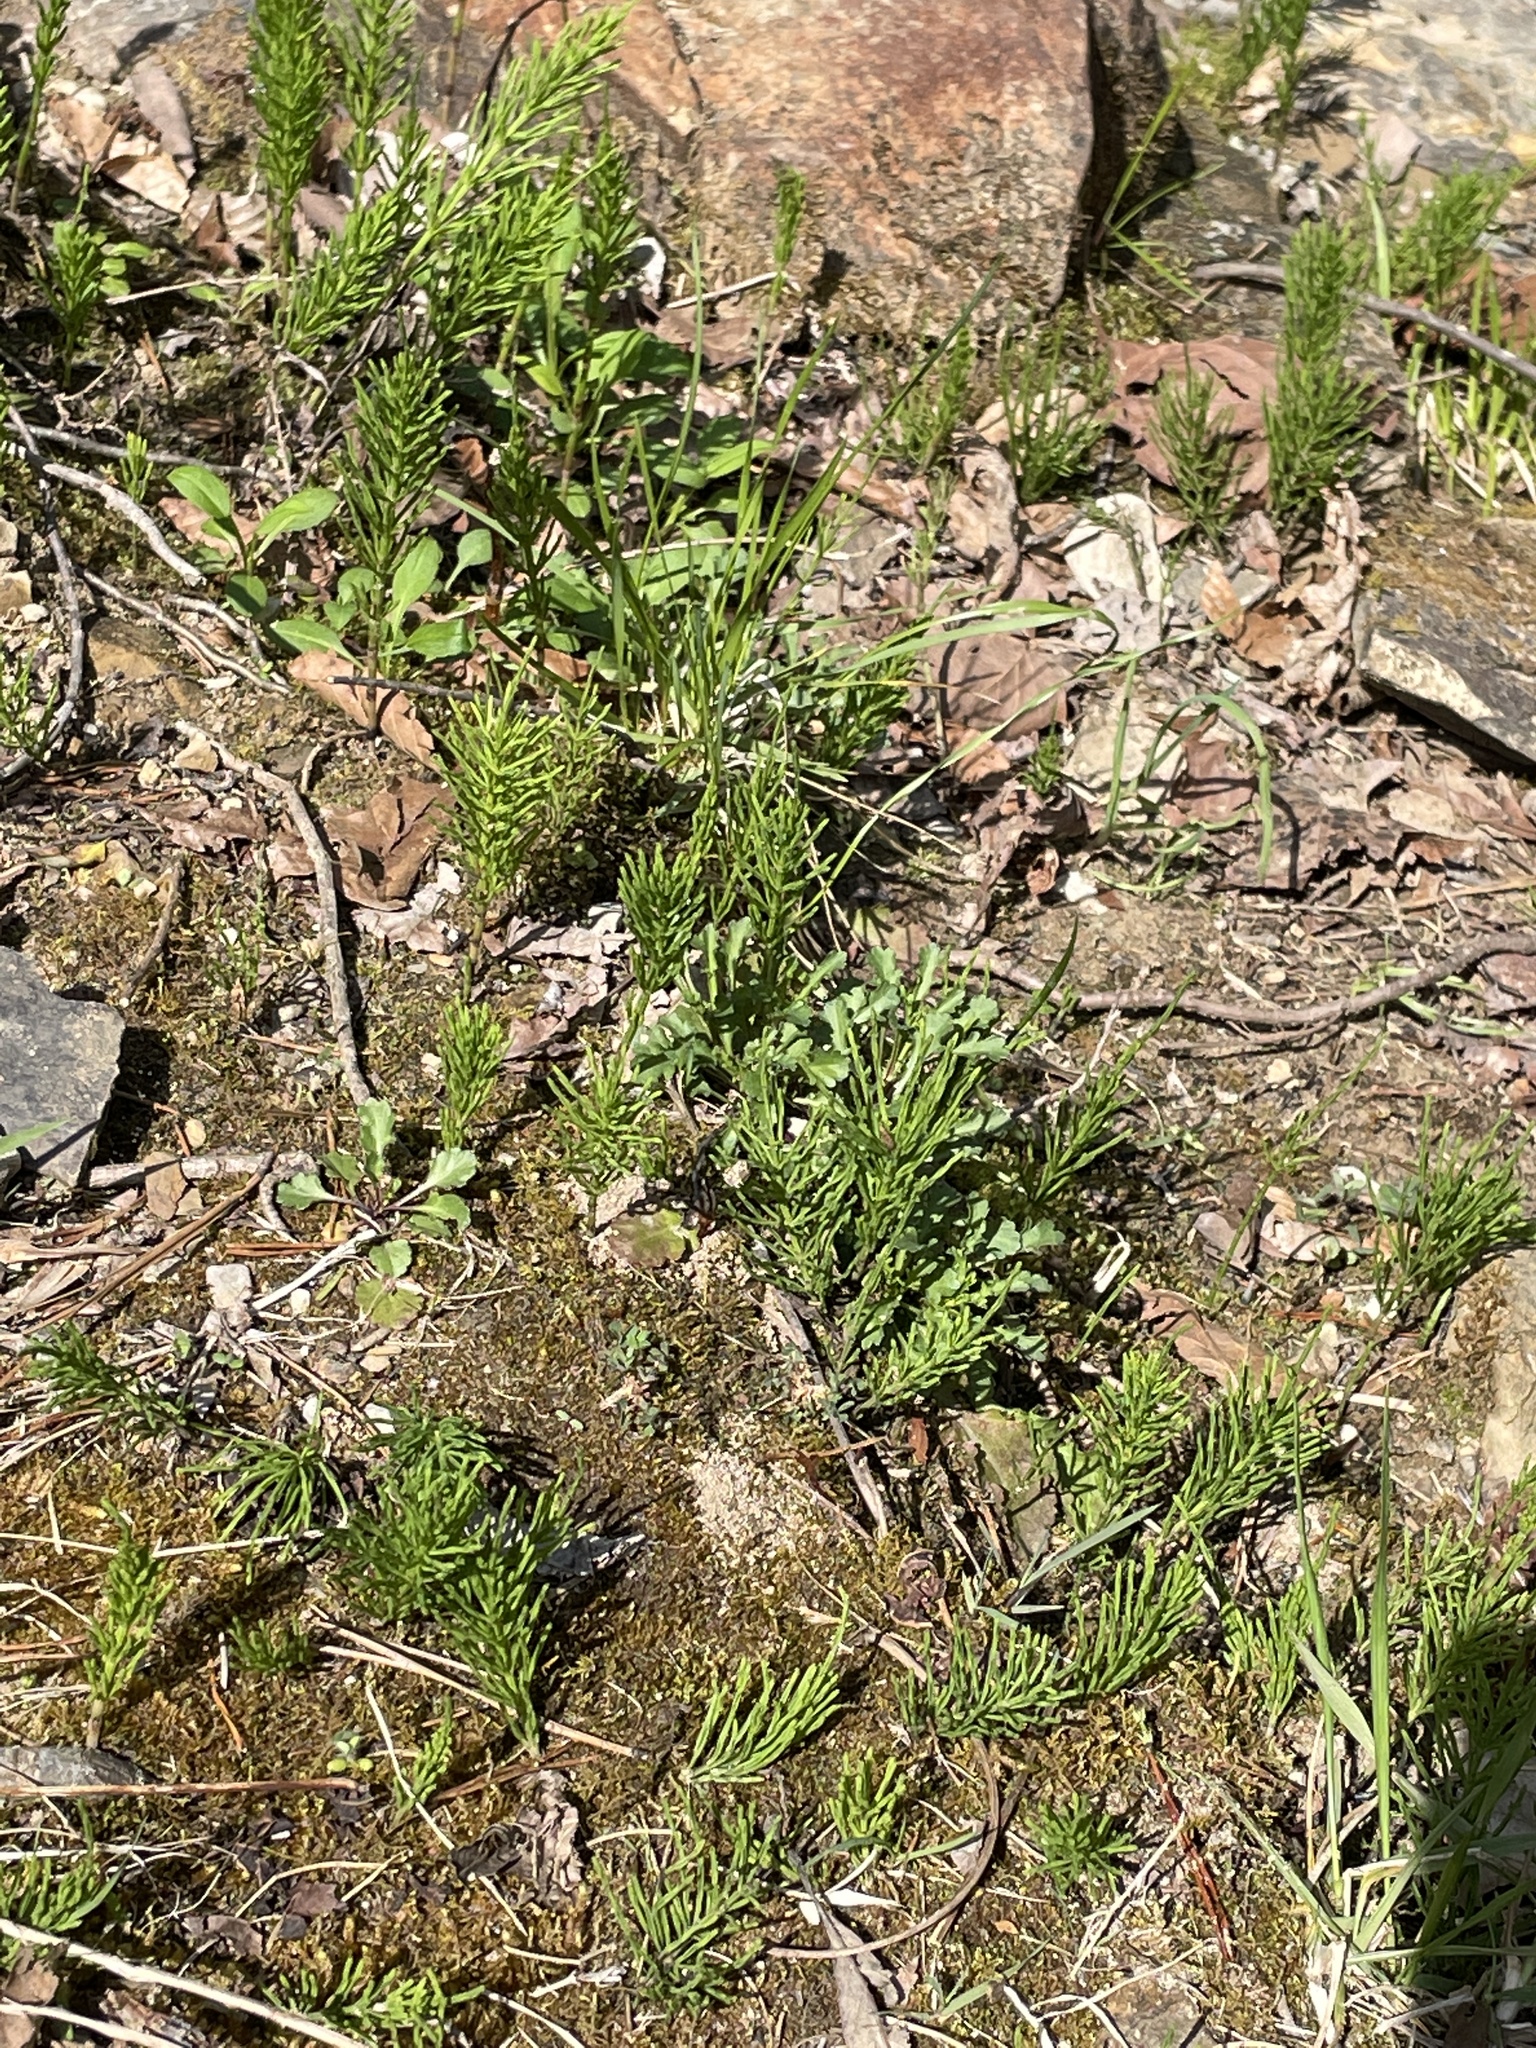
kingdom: Plantae
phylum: Tracheophyta
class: Polypodiopsida
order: Equisetales
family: Equisetaceae
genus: Equisetum
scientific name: Equisetum arvense
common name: Field horsetail
